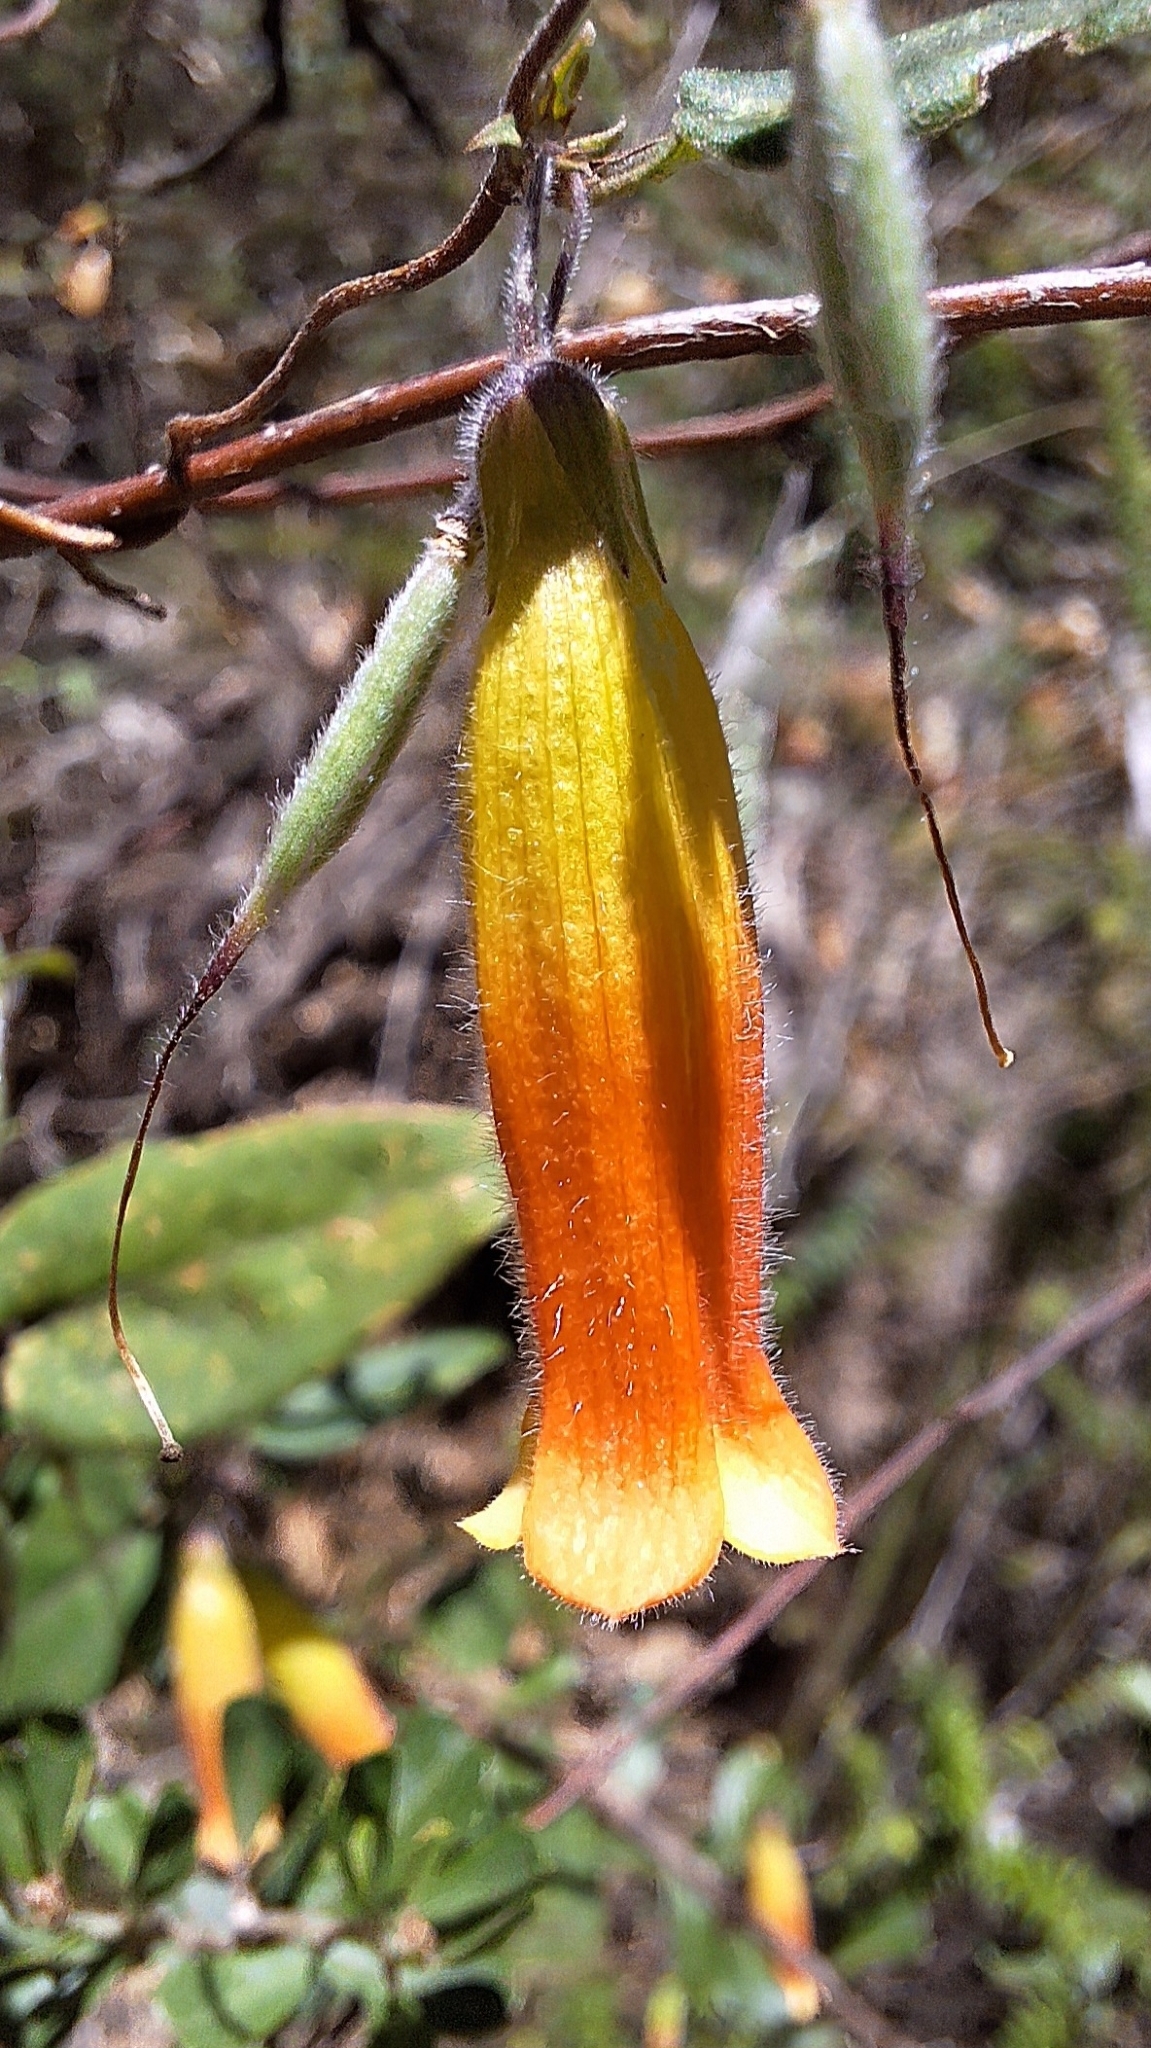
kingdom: Plantae
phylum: Tracheophyta
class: Magnoliopsida
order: Apiales
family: Pittosporaceae
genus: Marianthus
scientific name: Marianthus bignoniaceus
